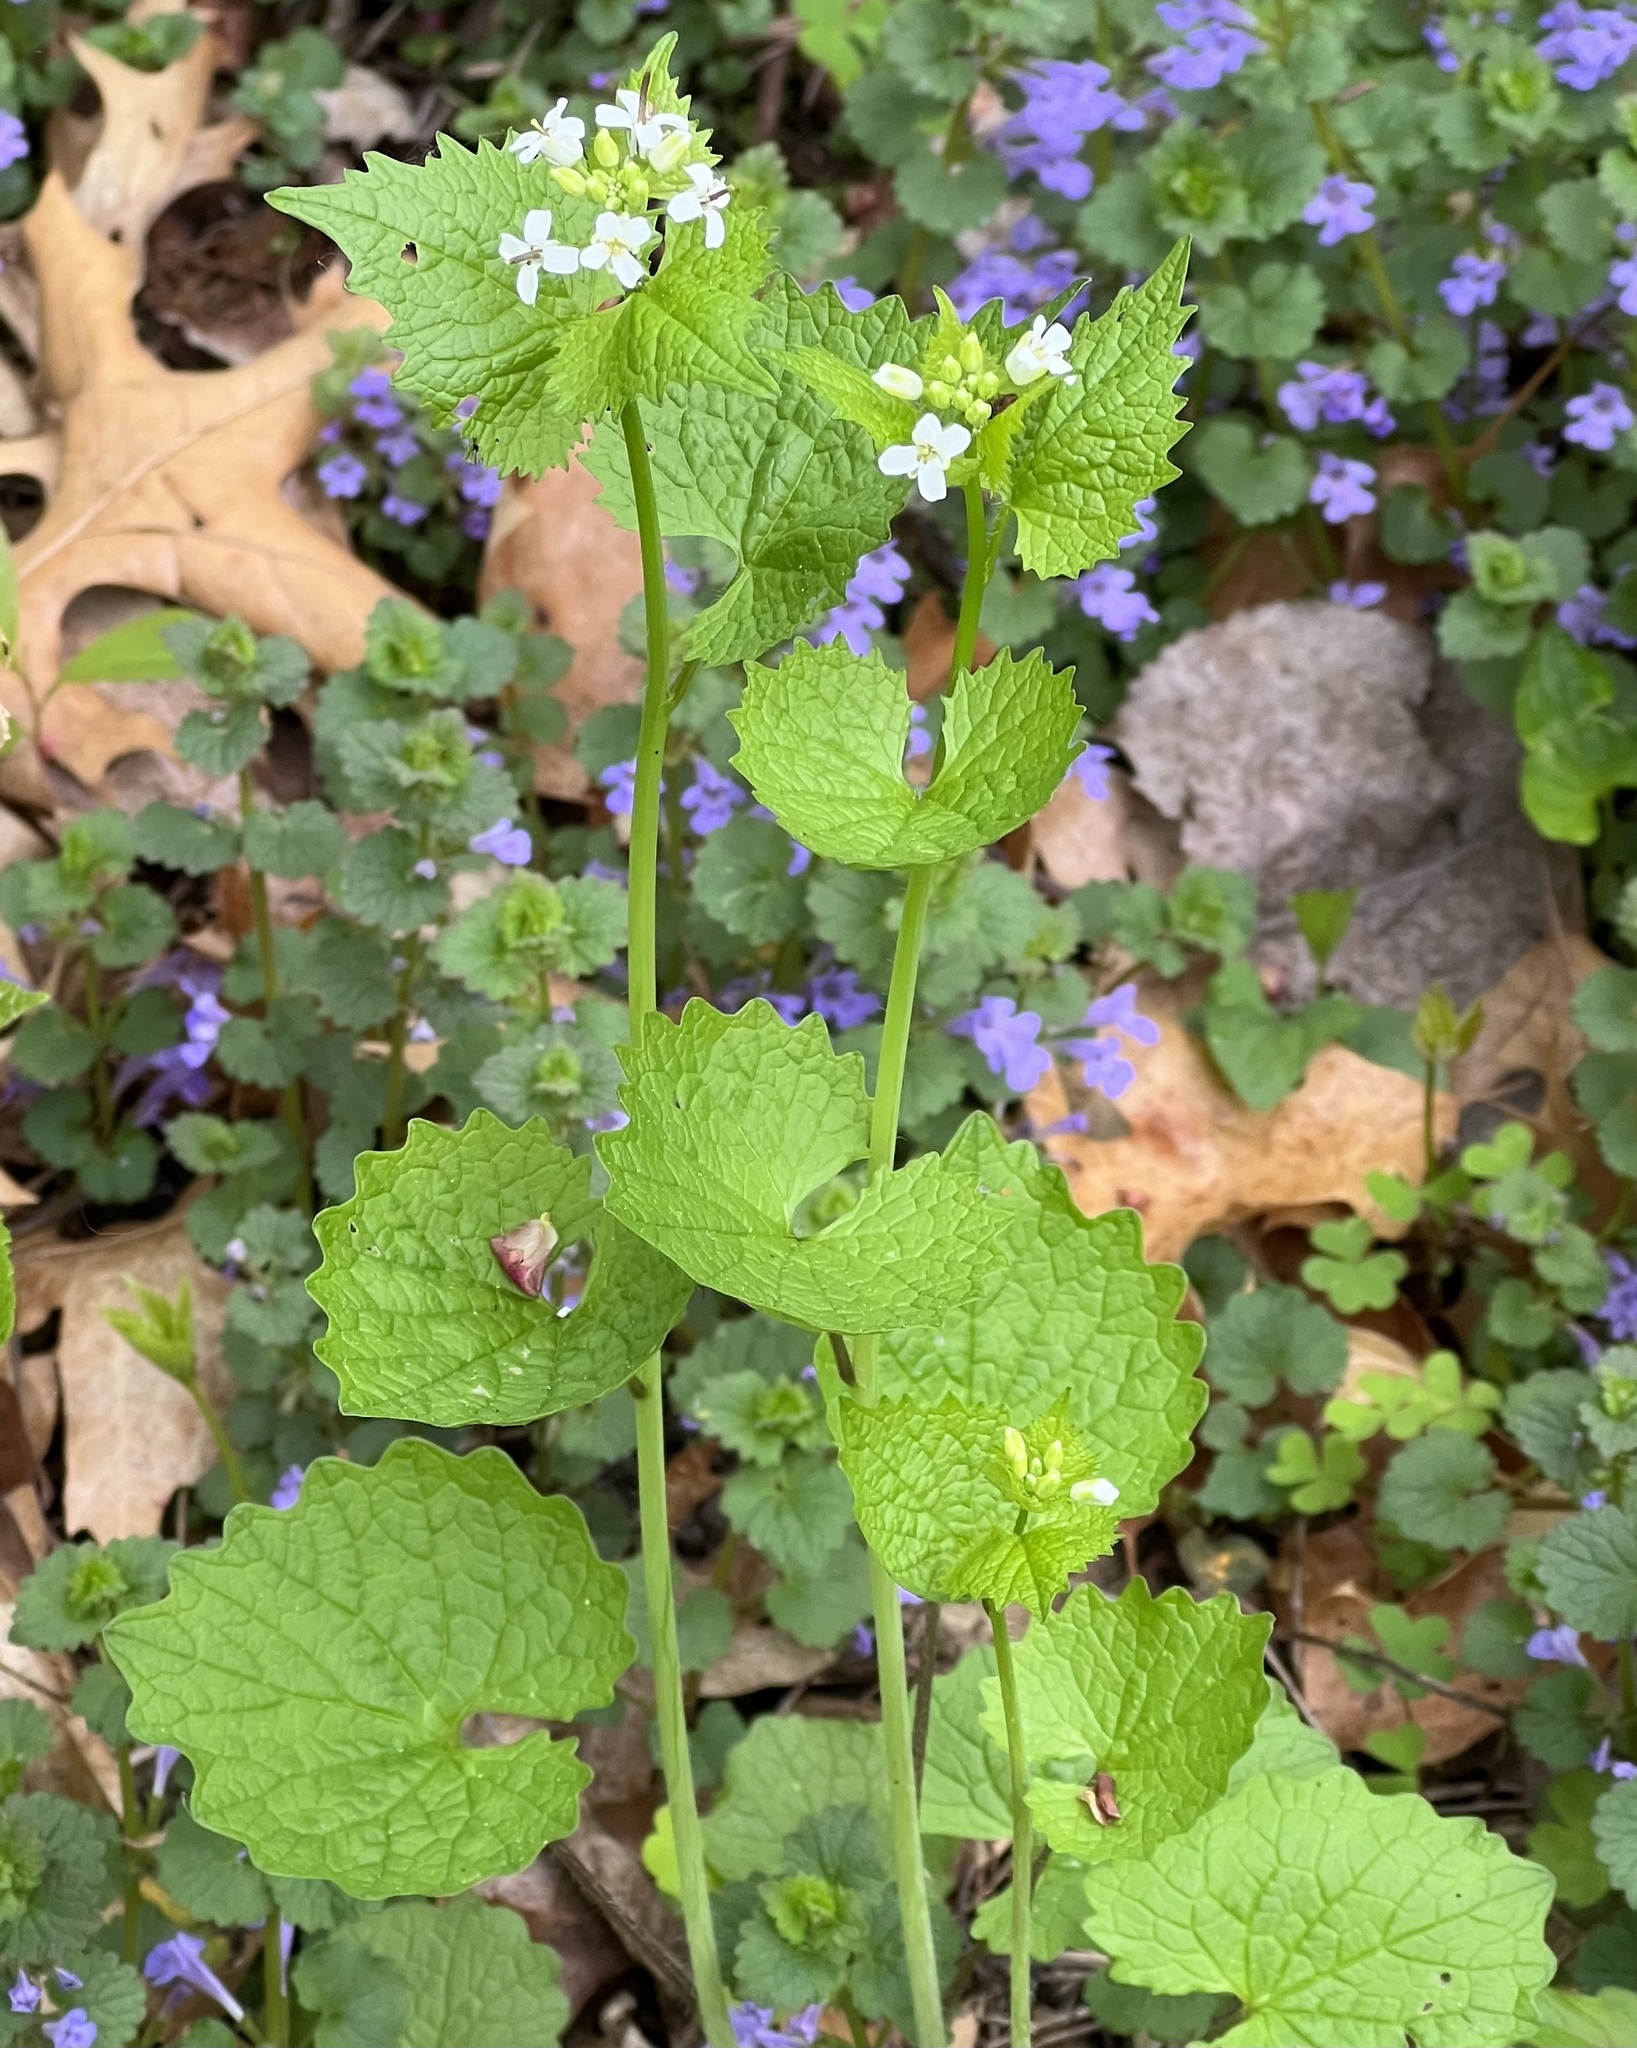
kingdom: Plantae
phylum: Tracheophyta
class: Magnoliopsida
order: Brassicales
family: Brassicaceae
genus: Alliaria
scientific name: Alliaria petiolata
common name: Garlic mustard
